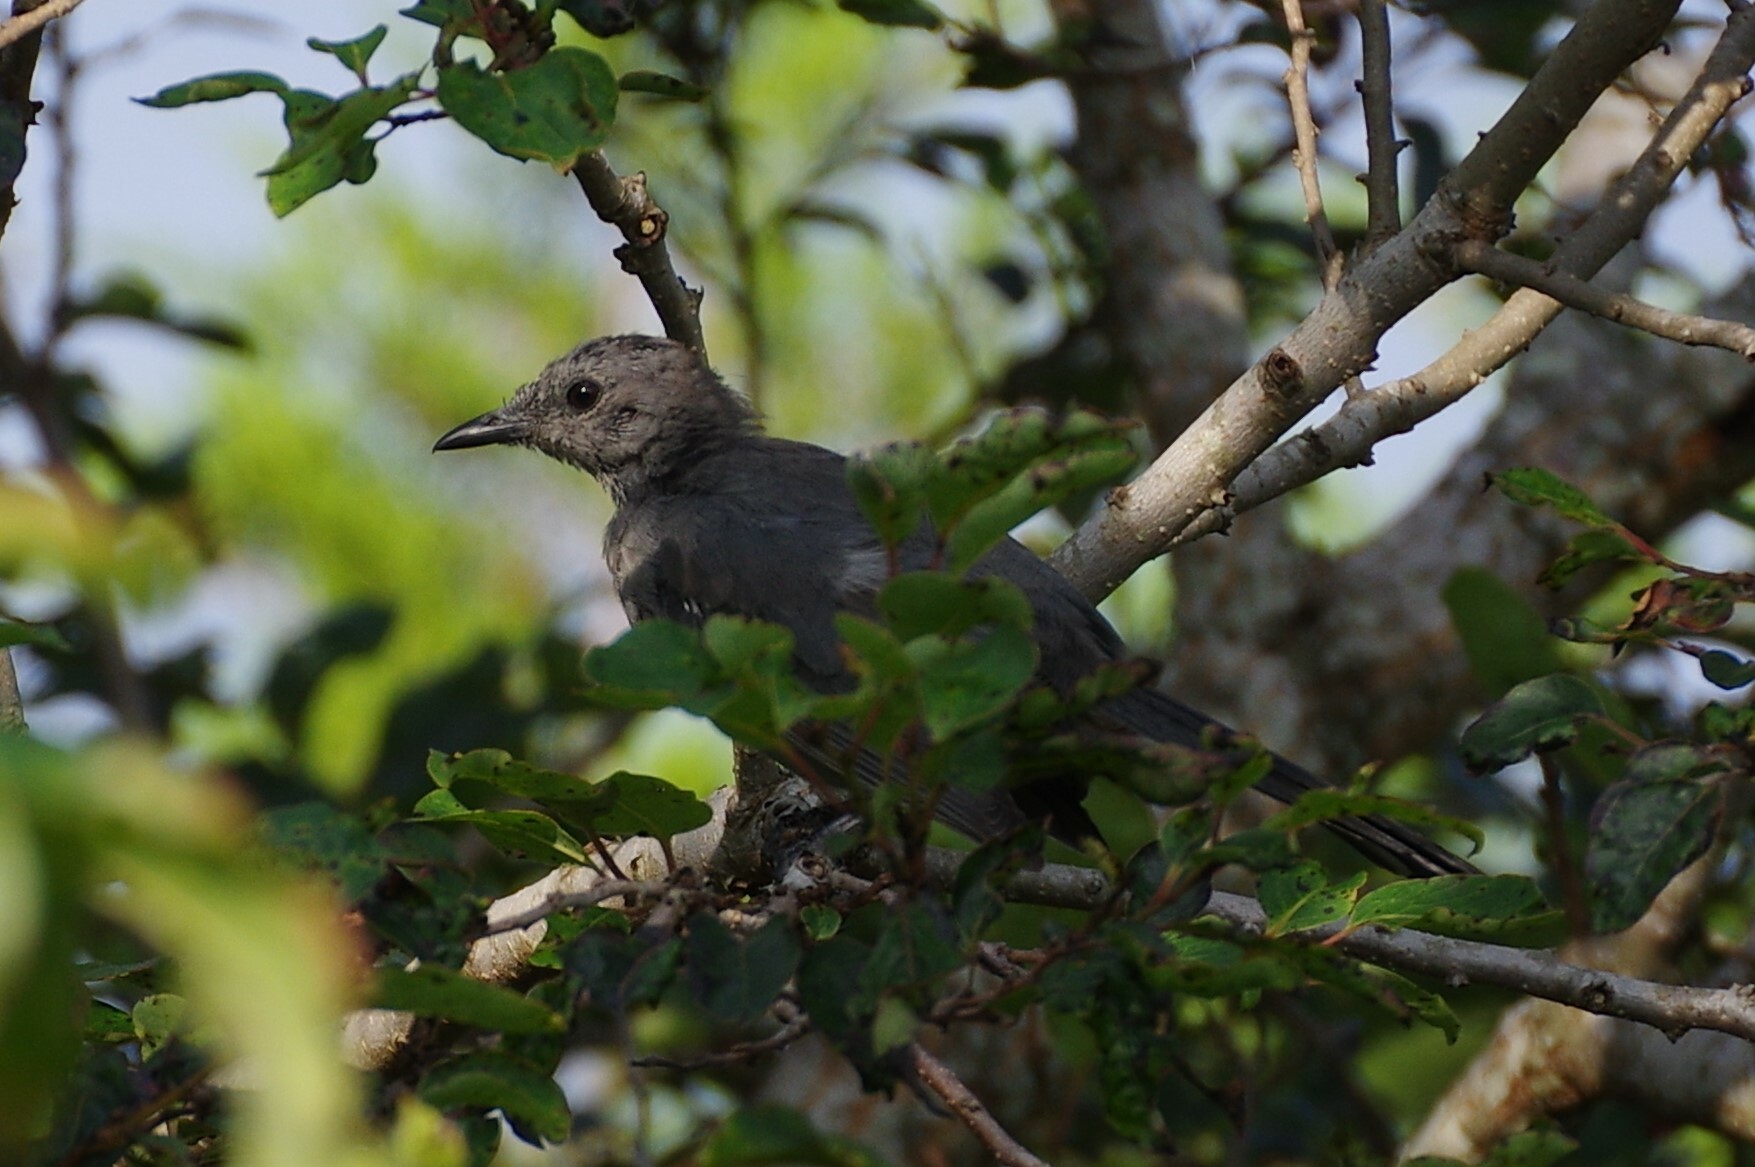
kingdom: Animalia
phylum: Chordata
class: Aves
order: Passeriformes
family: Mimidae
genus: Dumetella
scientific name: Dumetella carolinensis
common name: Gray catbird
